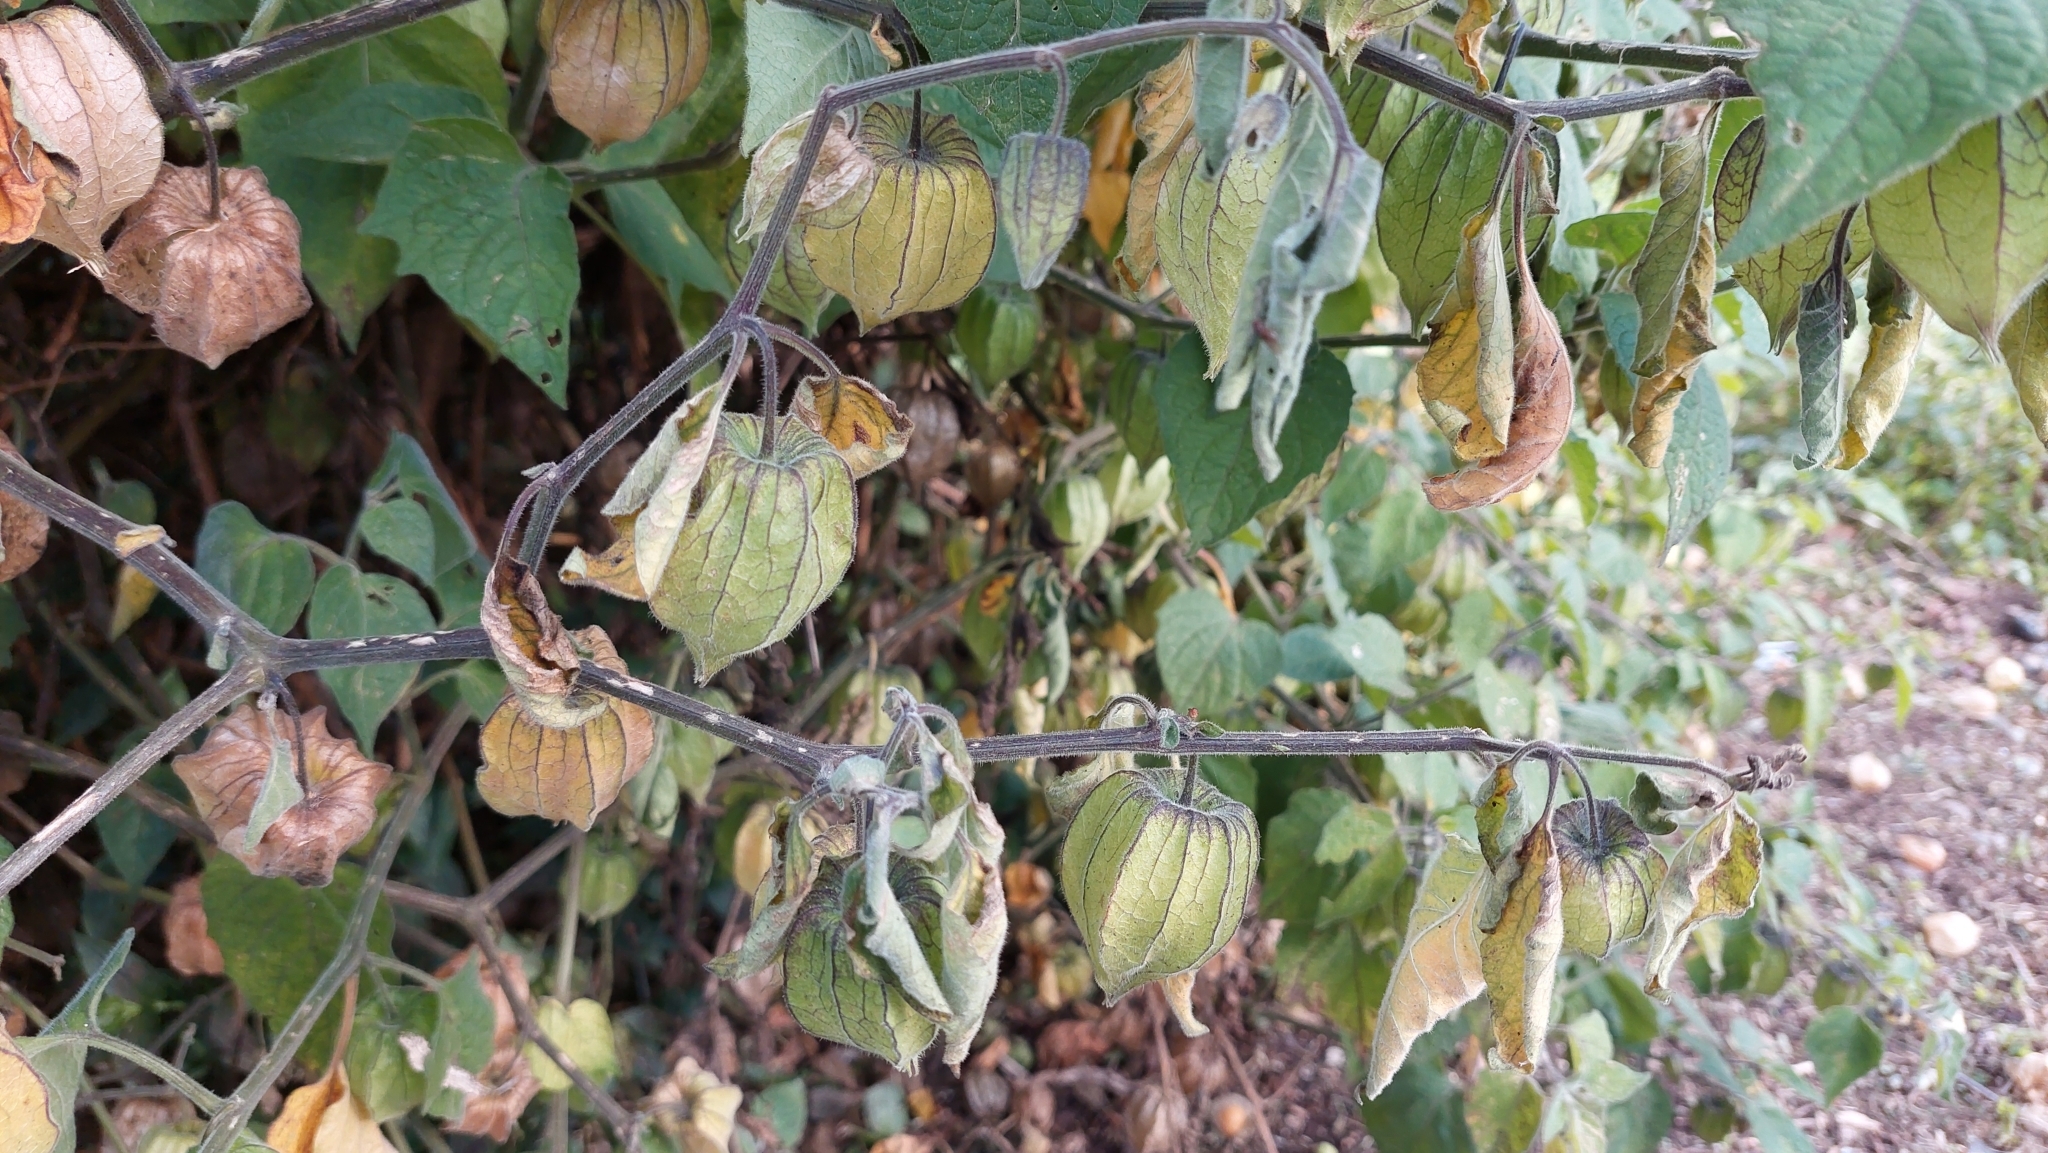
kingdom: Plantae
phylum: Tracheophyta
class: Magnoliopsida
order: Solanales
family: Solanaceae
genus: Physalis
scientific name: Physalis peruviana
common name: Cape-gooseberry
